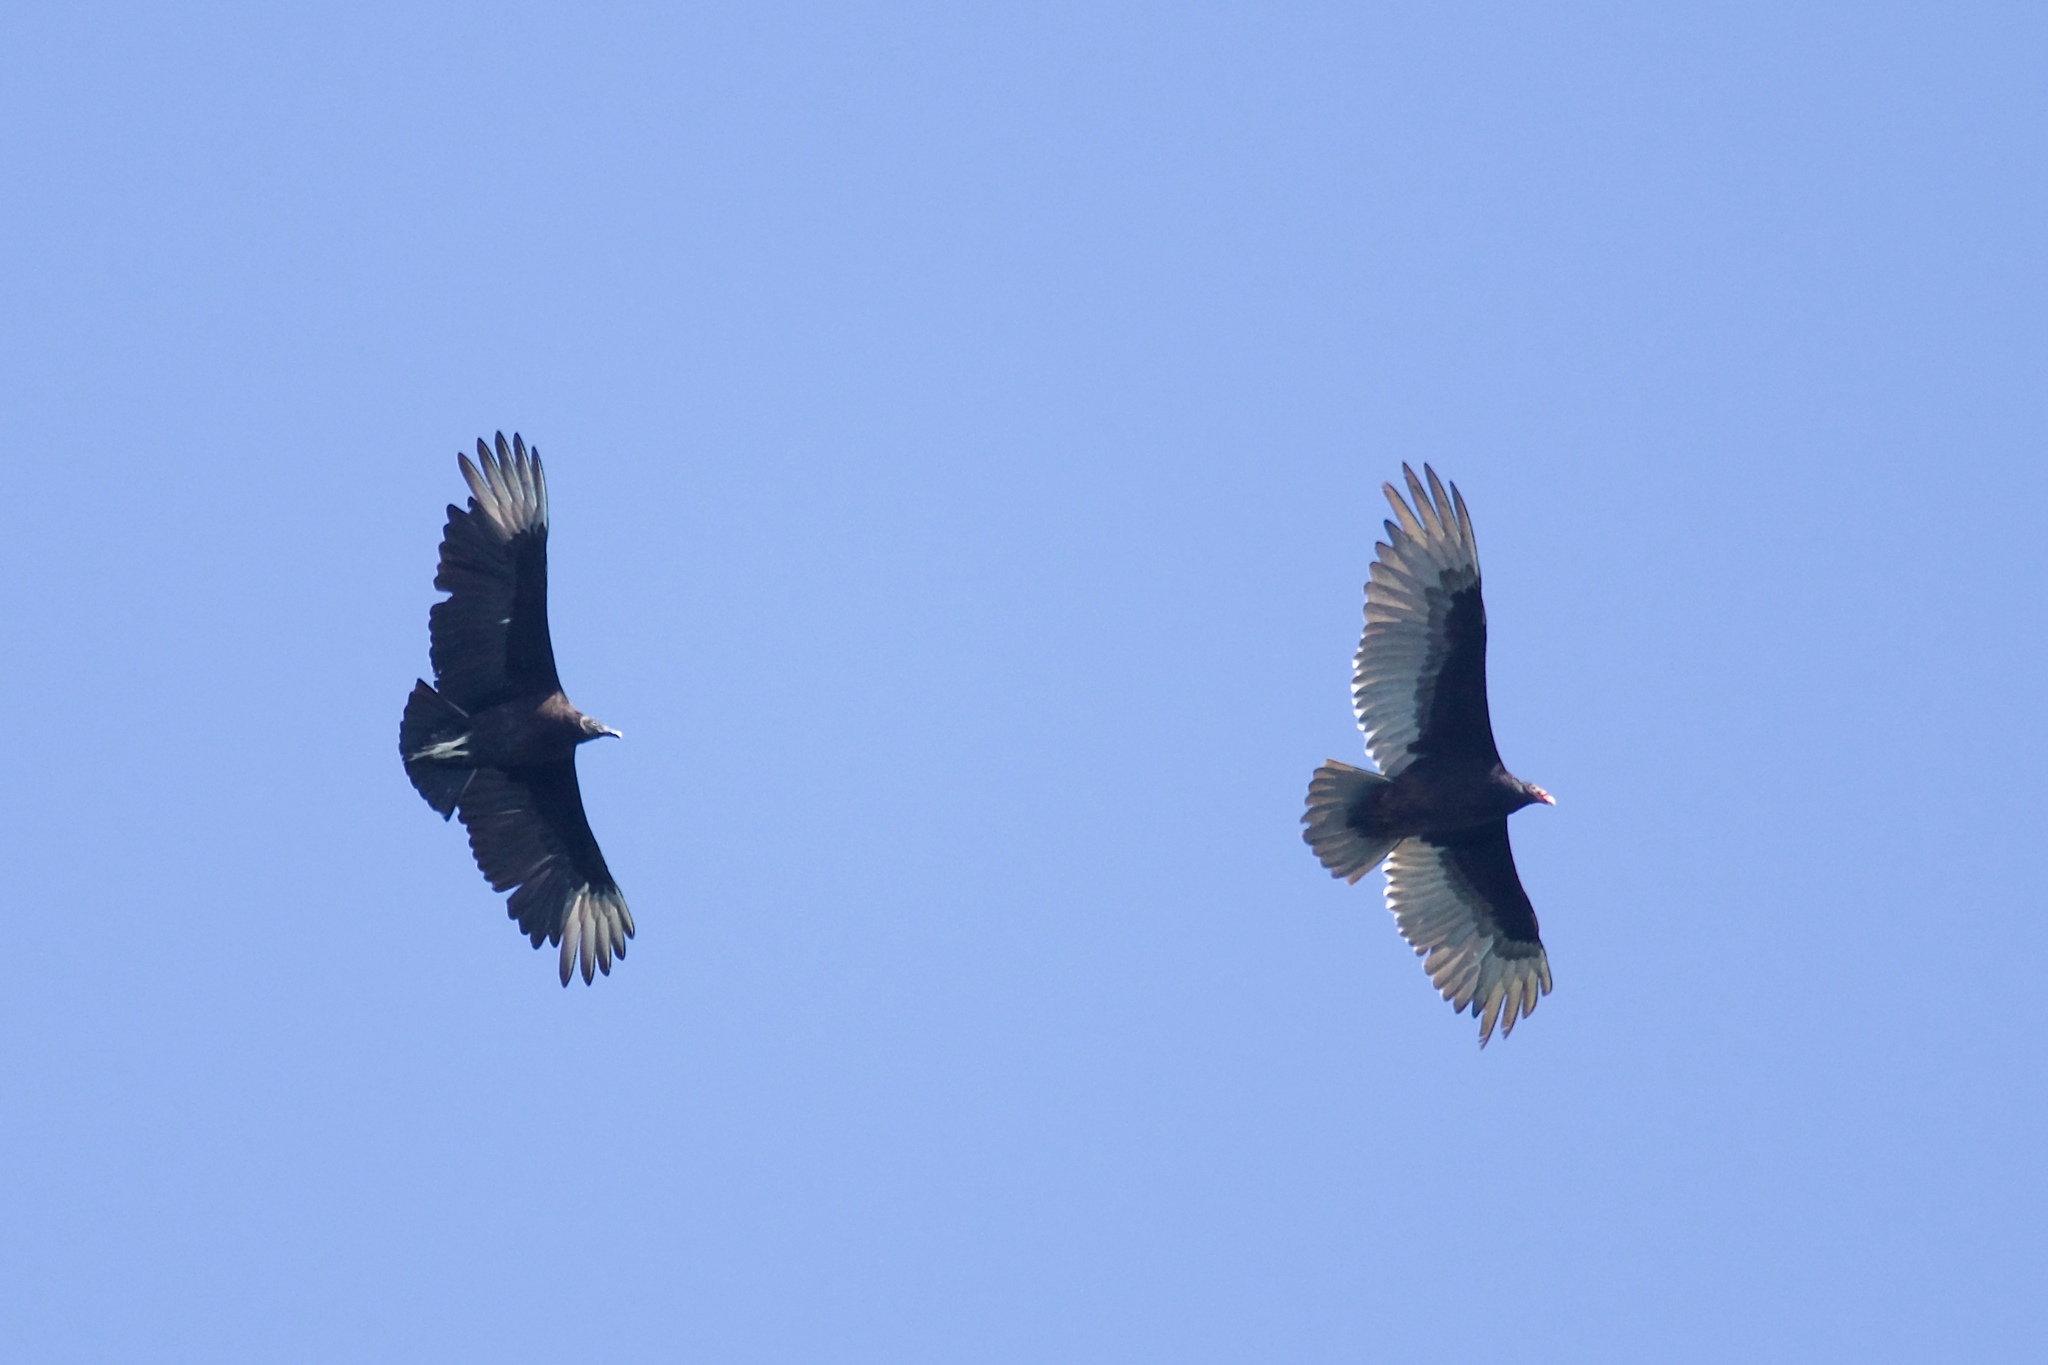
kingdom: Animalia
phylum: Chordata
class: Aves
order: Accipitriformes
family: Cathartidae
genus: Coragyps
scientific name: Coragyps atratus
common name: Black vulture
